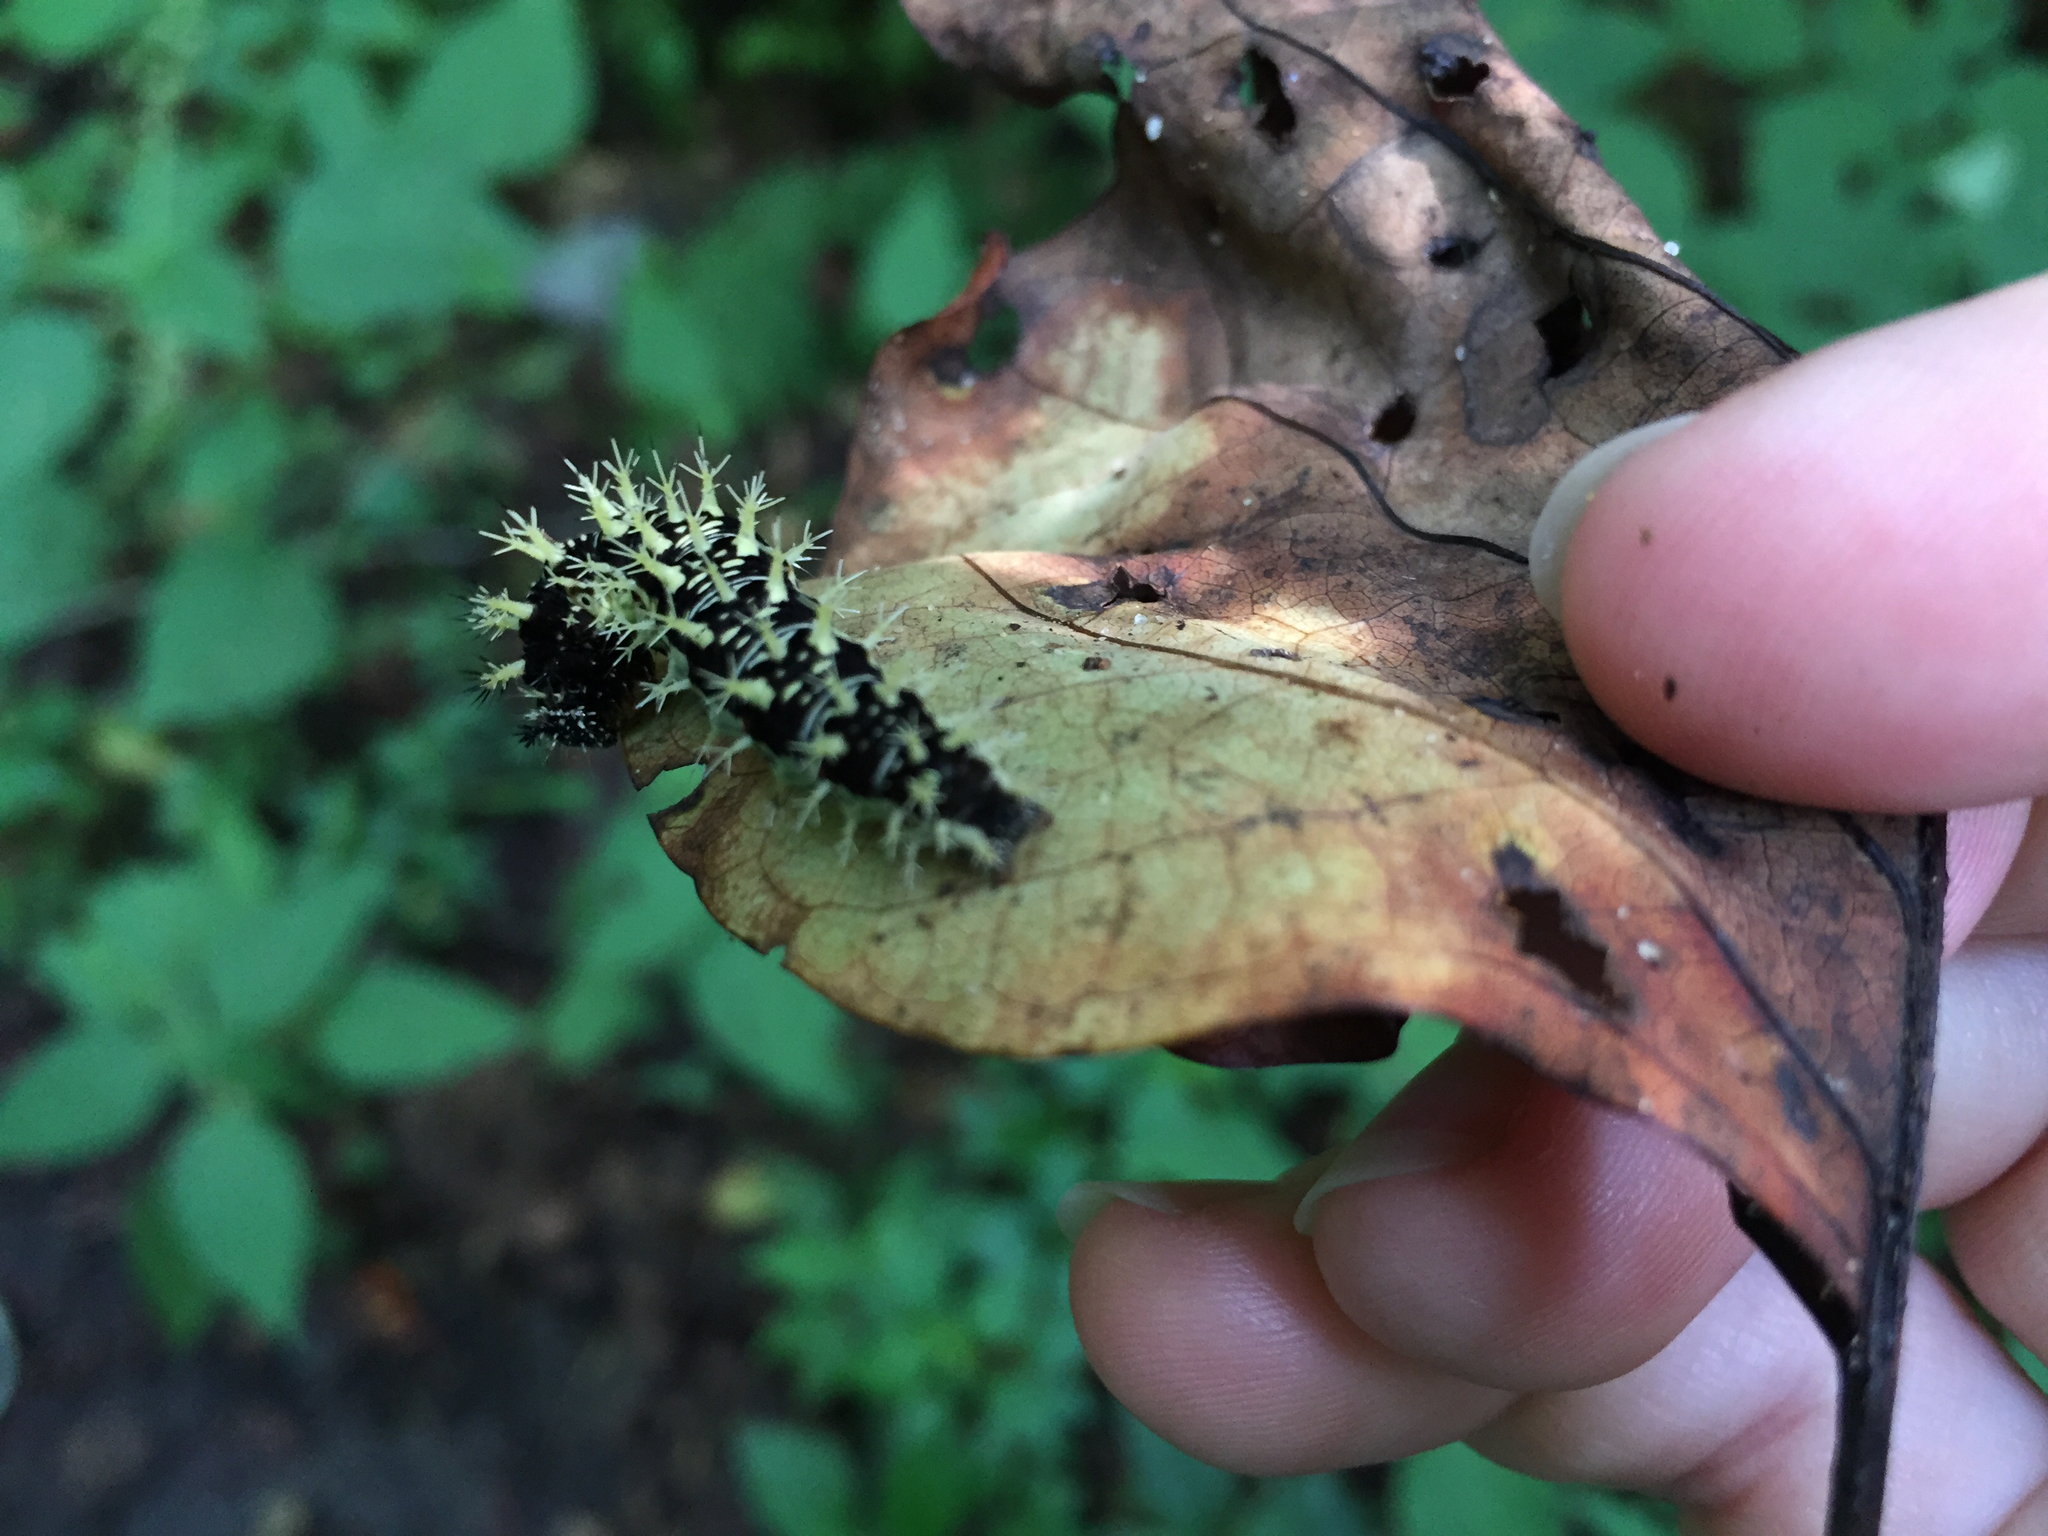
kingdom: Animalia
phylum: Arthropoda
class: Insecta
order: Lepidoptera
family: Nymphalidae
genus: Polygonia
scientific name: Polygonia comma
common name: Eastern comma
